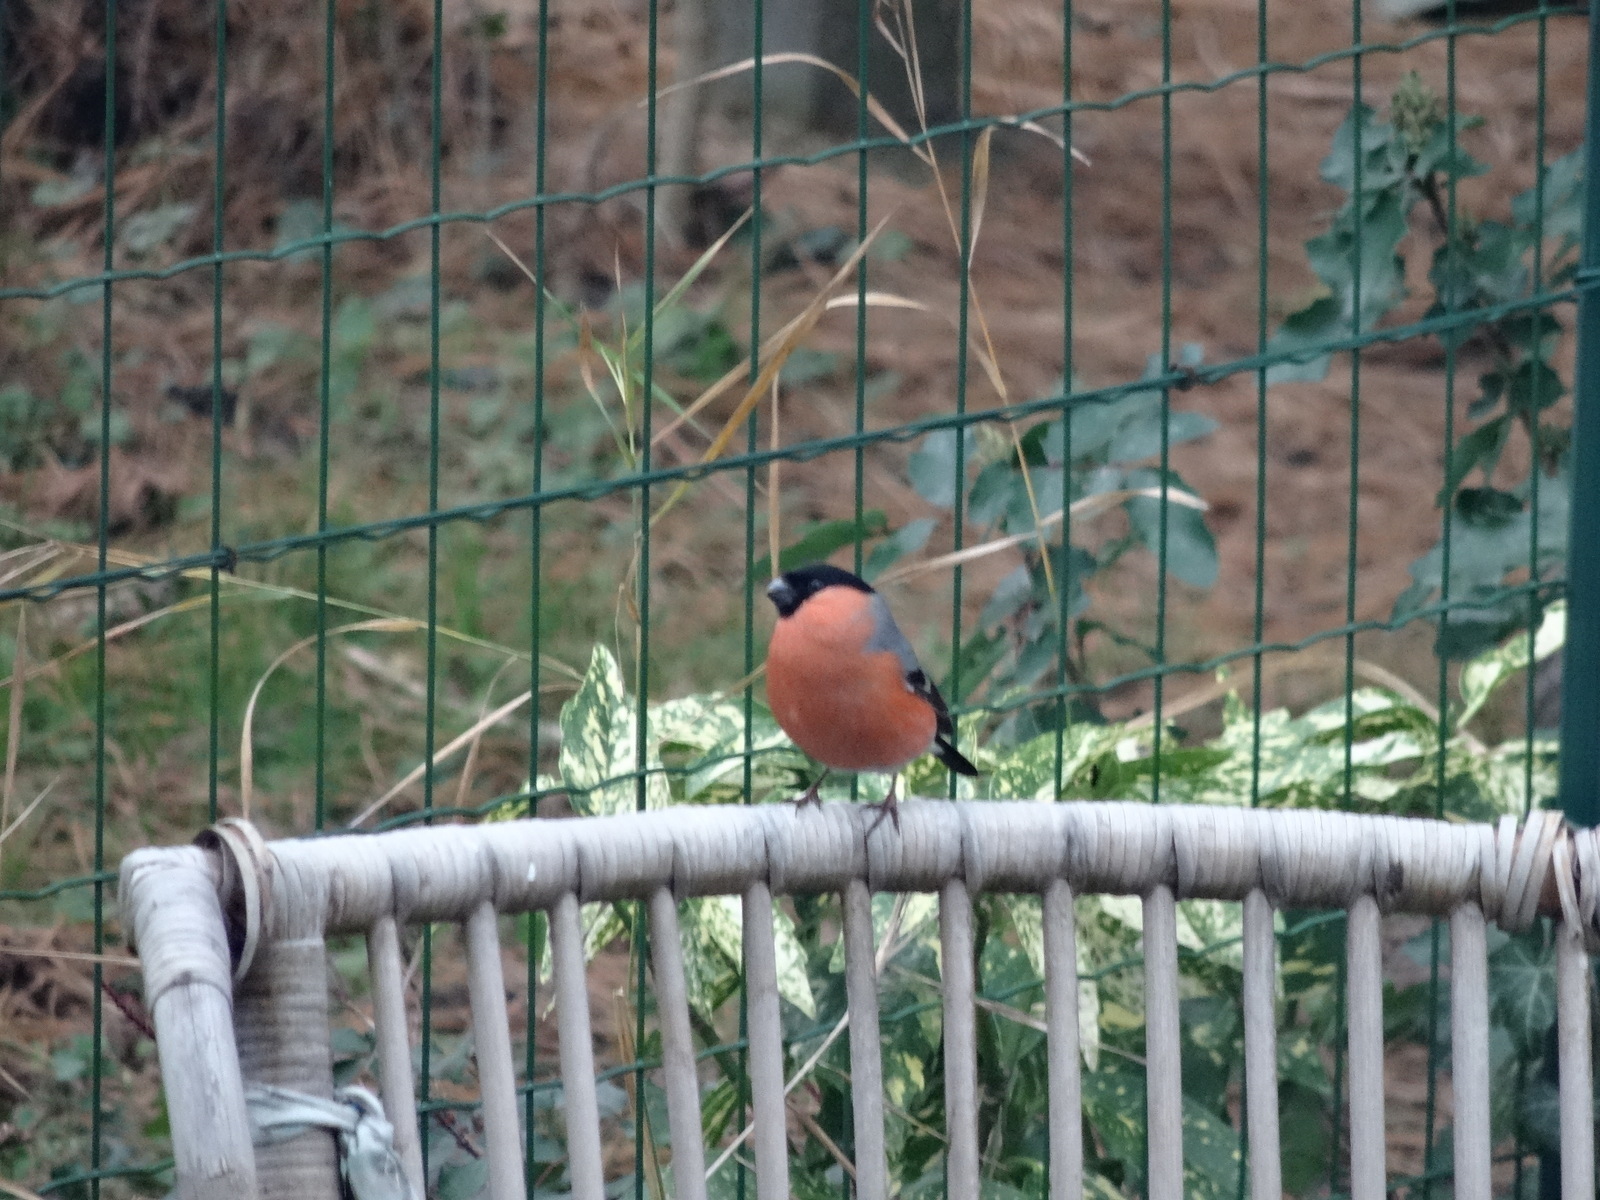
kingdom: Animalia
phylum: Chordata
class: Aves
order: Passeriformes
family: Fringillidae
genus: Pyrrhula
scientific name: Pyrrhula pyrrhula
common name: Eurasian bullfinch
